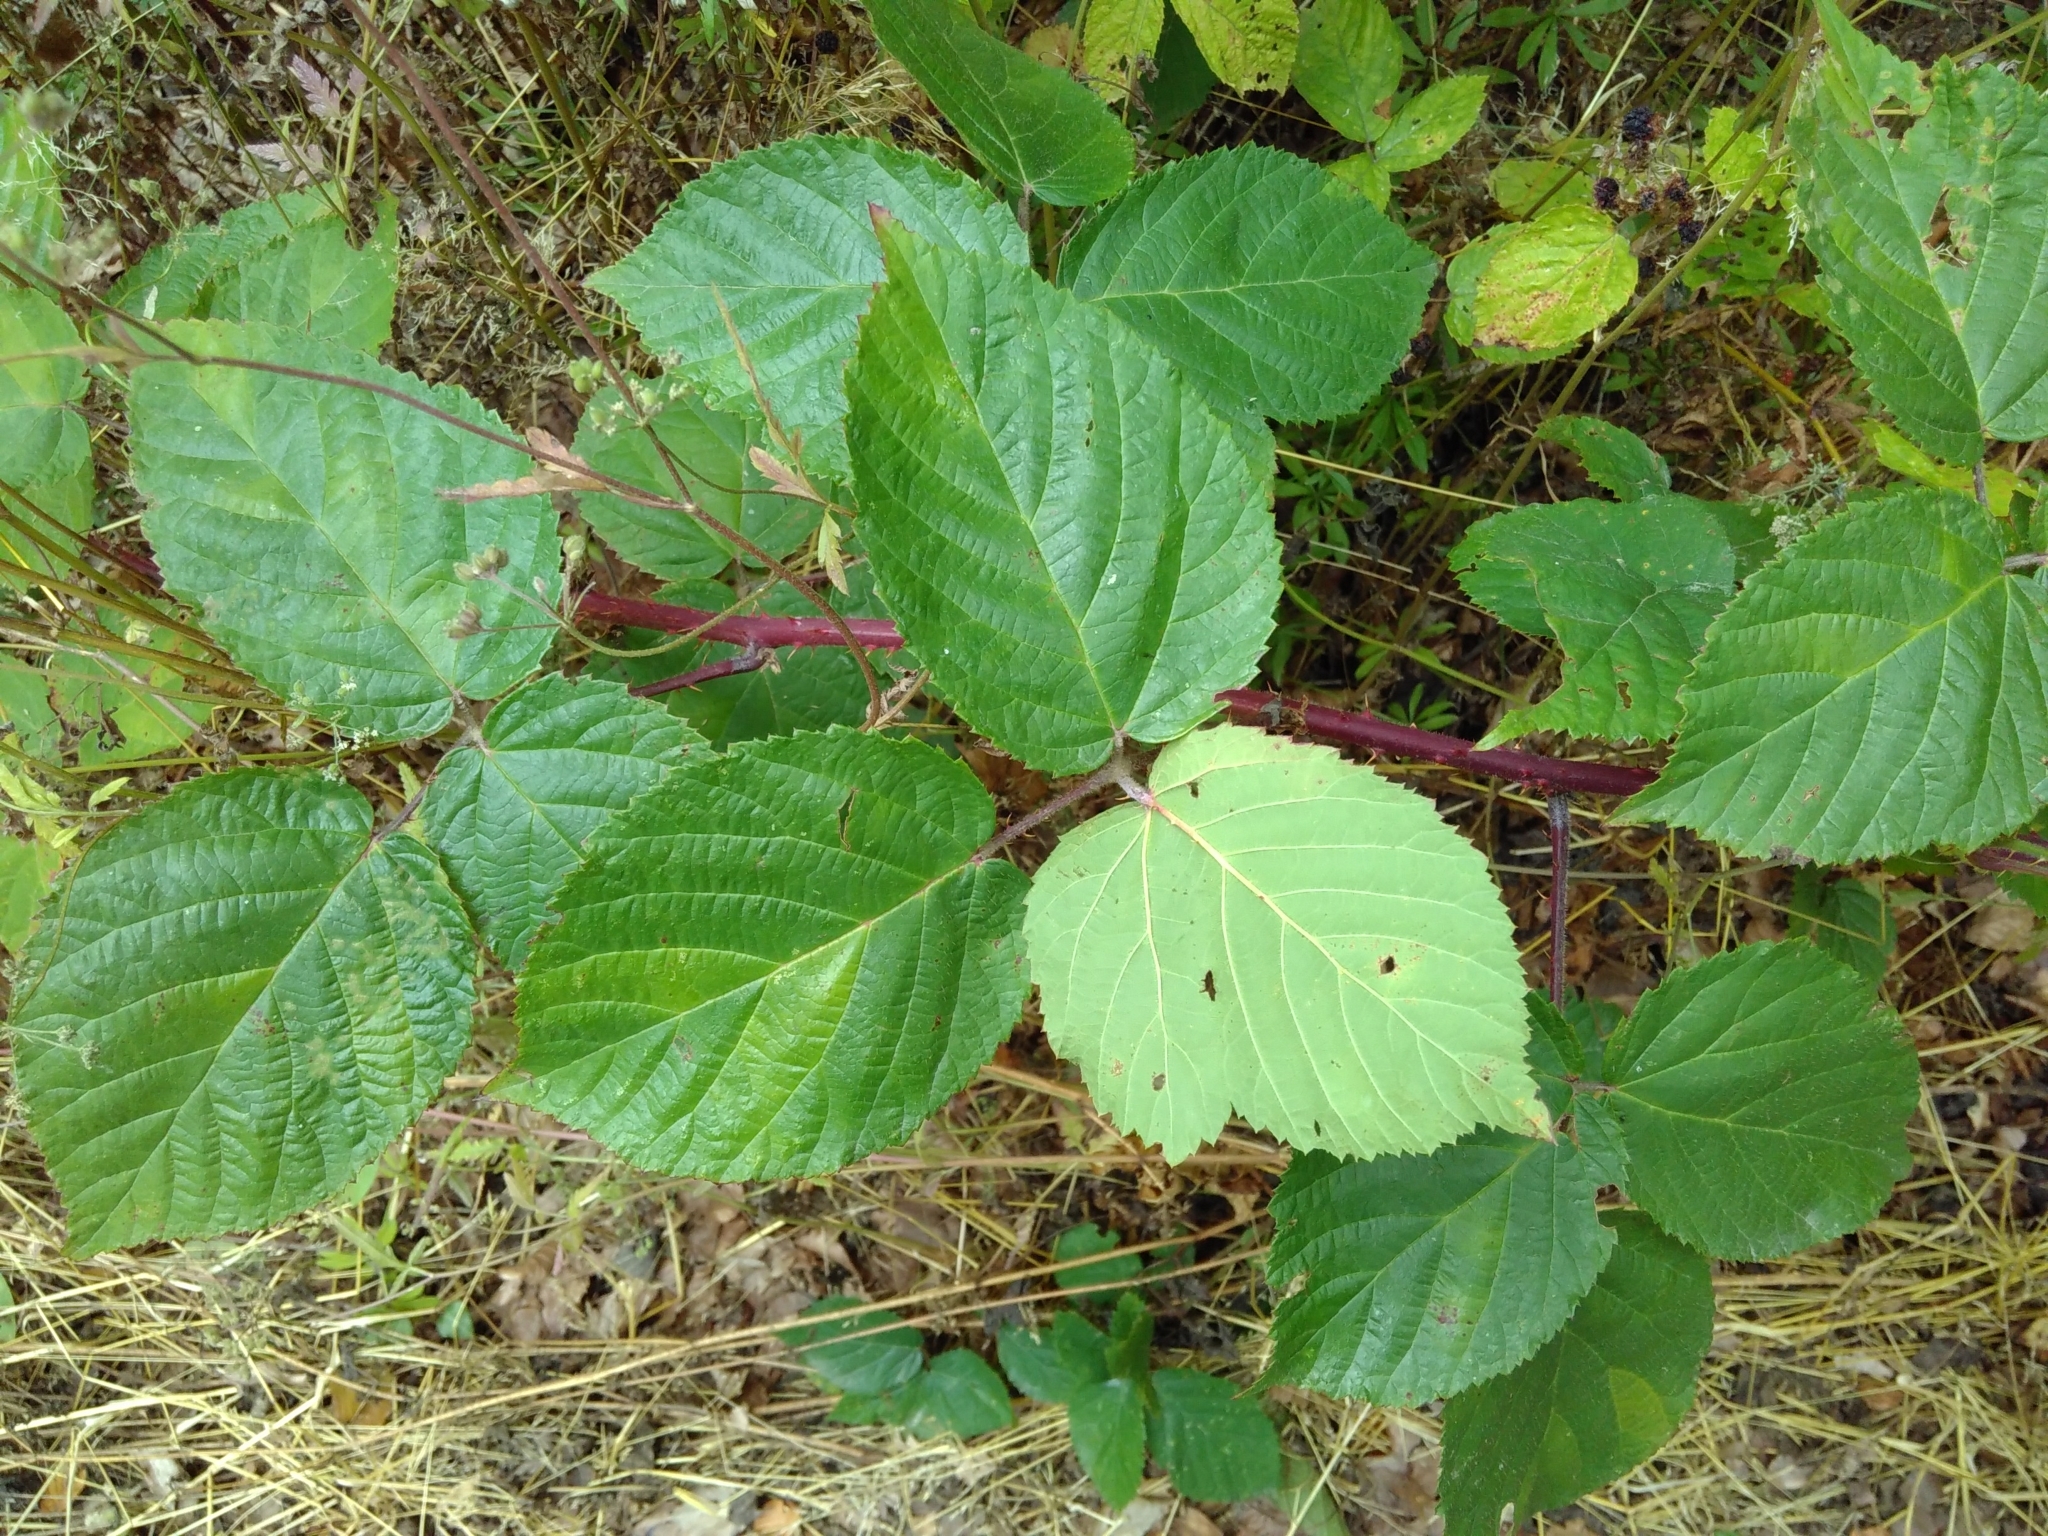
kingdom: Plantae
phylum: Tracheophyta
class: Magnoliopsida
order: Rosales
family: Rosaceae
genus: Rubus
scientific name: Rubus condensatus
